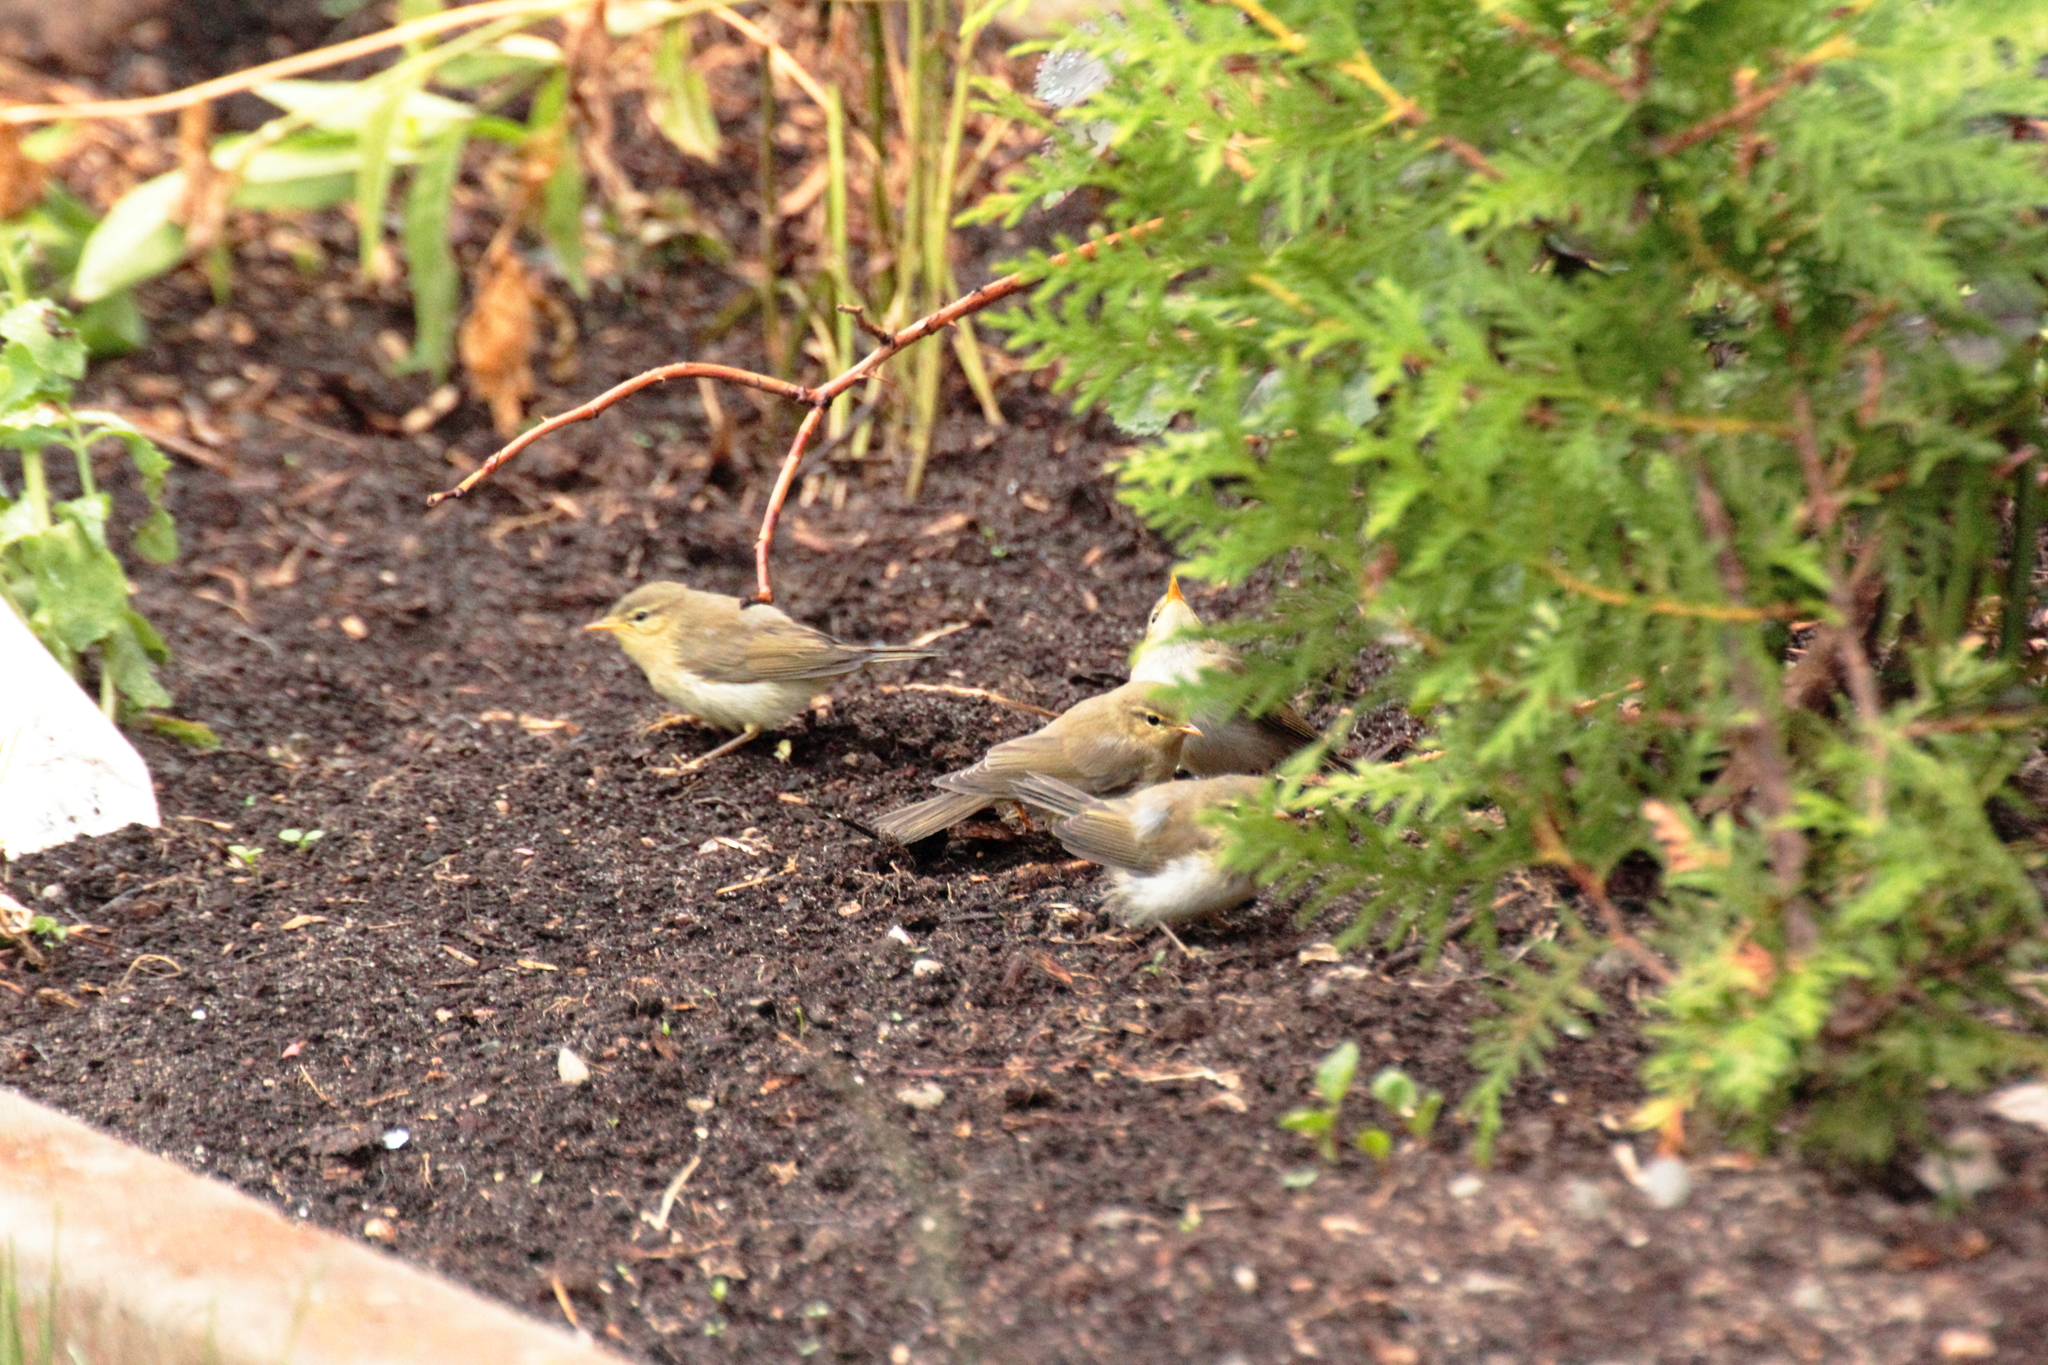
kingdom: Animalia
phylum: Chordata
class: Aves
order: Passeriformes
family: Phylloscopidae
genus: Phylloscopus
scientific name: Phylloscopus trochilus
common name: Willow warbler
